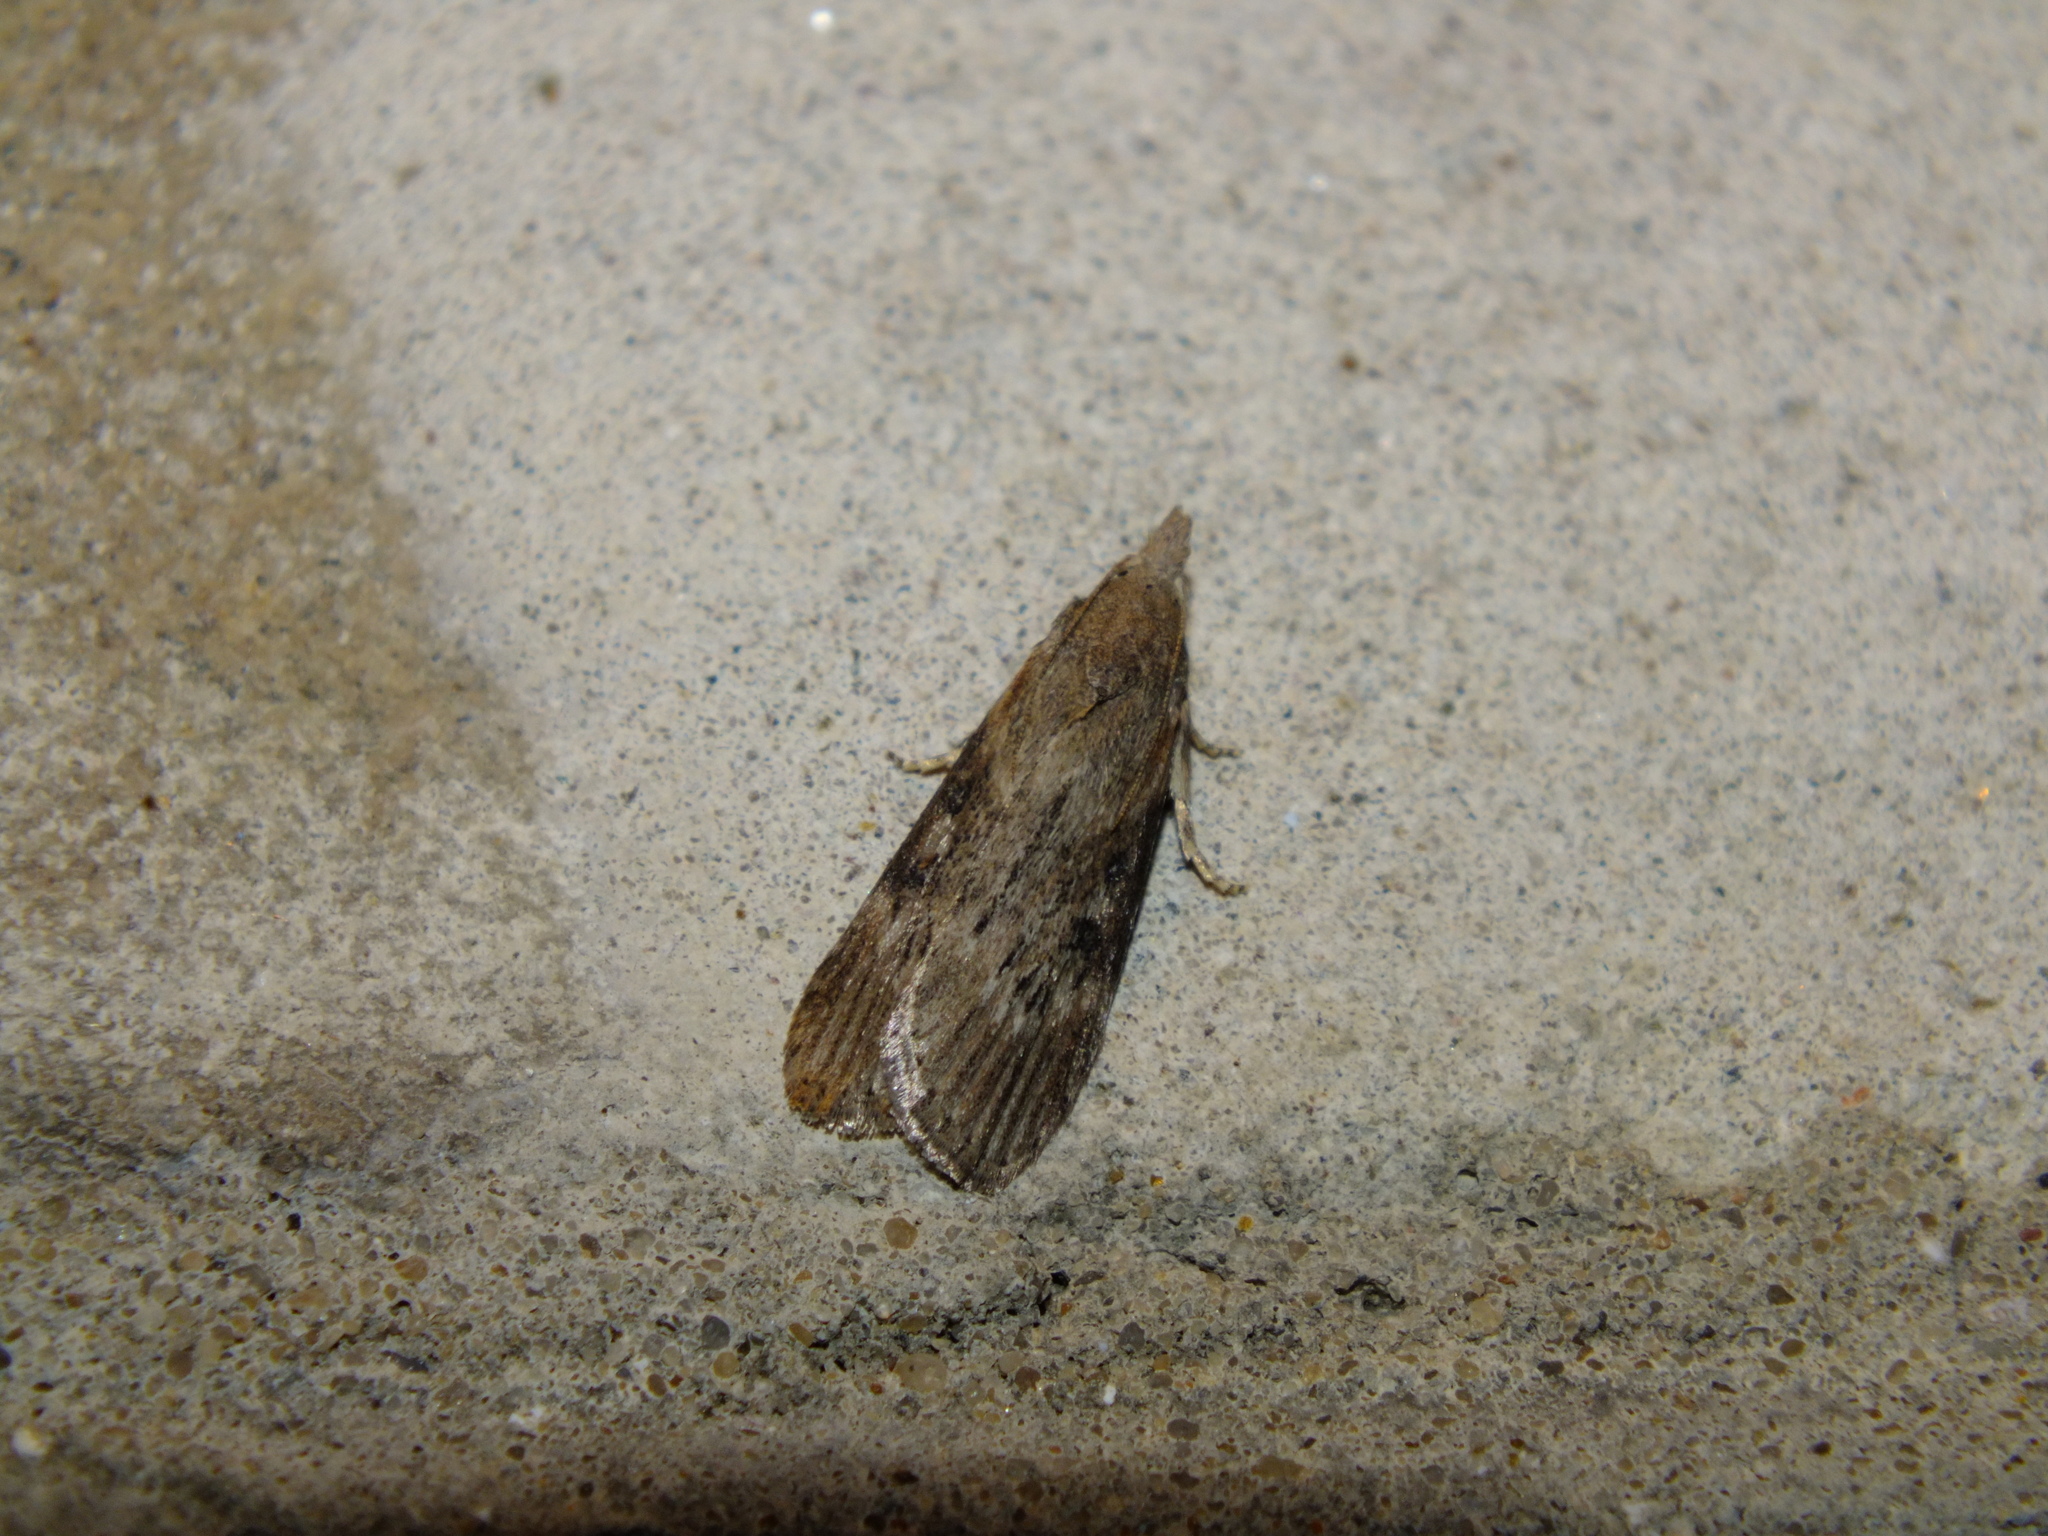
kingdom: Animalia
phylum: Arthropoda
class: Insecta
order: Lepidoptera
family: Pyralidae
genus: Lamoria
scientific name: Lamoria anella
